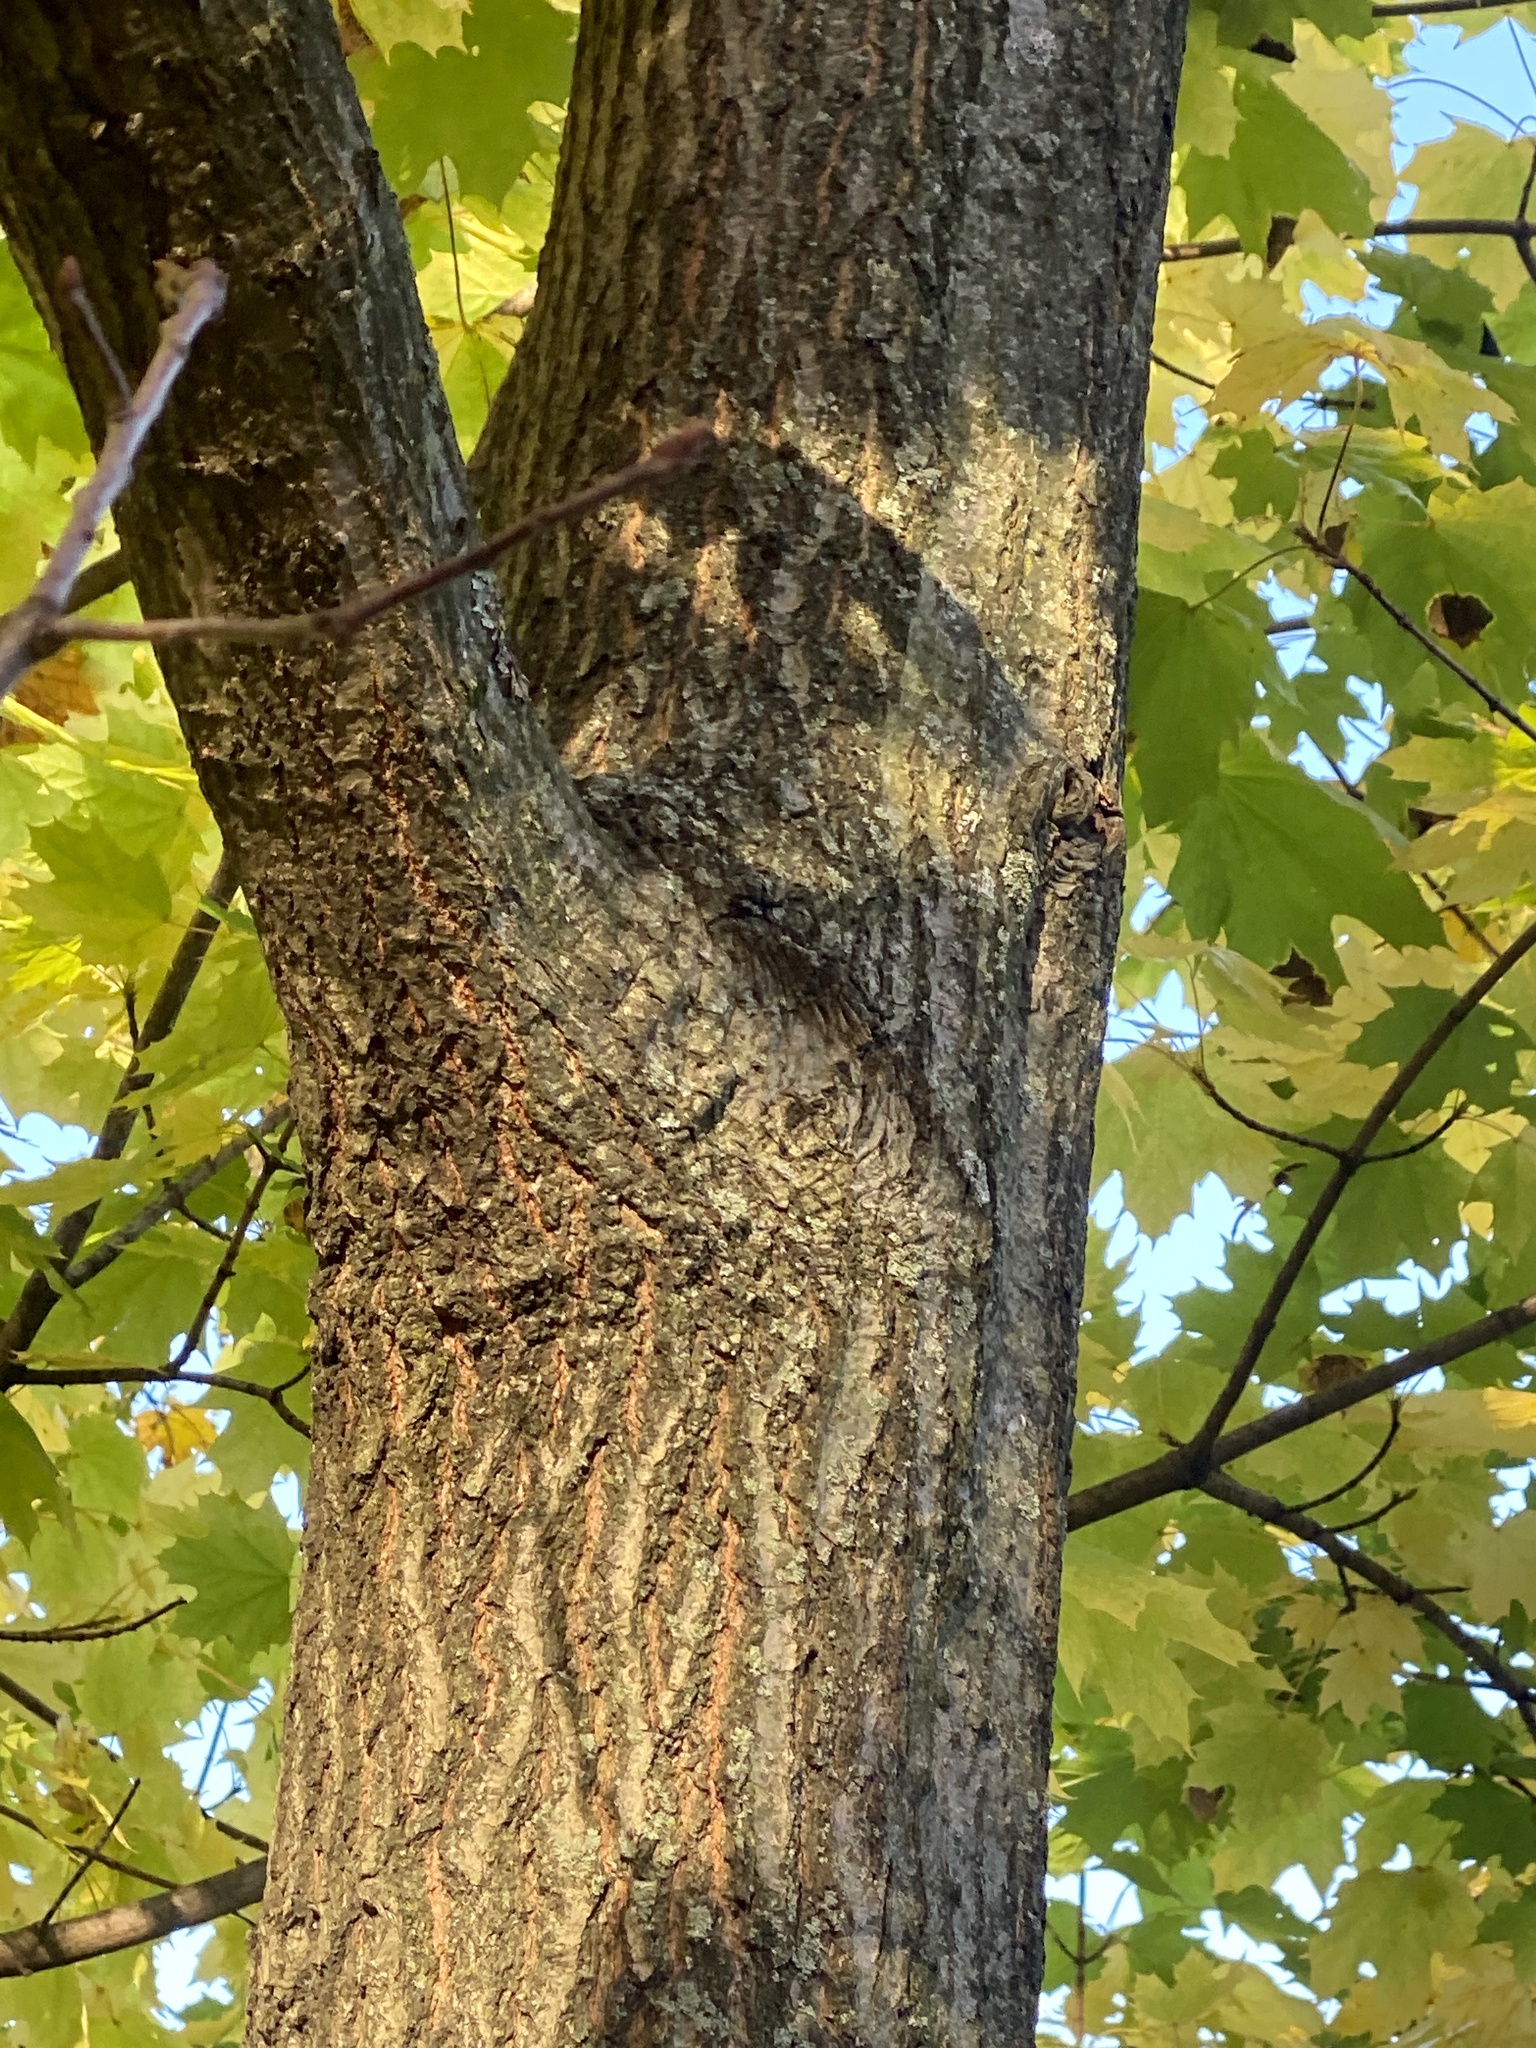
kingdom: Plantae
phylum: Tracheophyta
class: Magnoliopsida
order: Sapindales
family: Sapindaceae
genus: Acer
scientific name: Acer pseudoplatanus
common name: Sycamore
